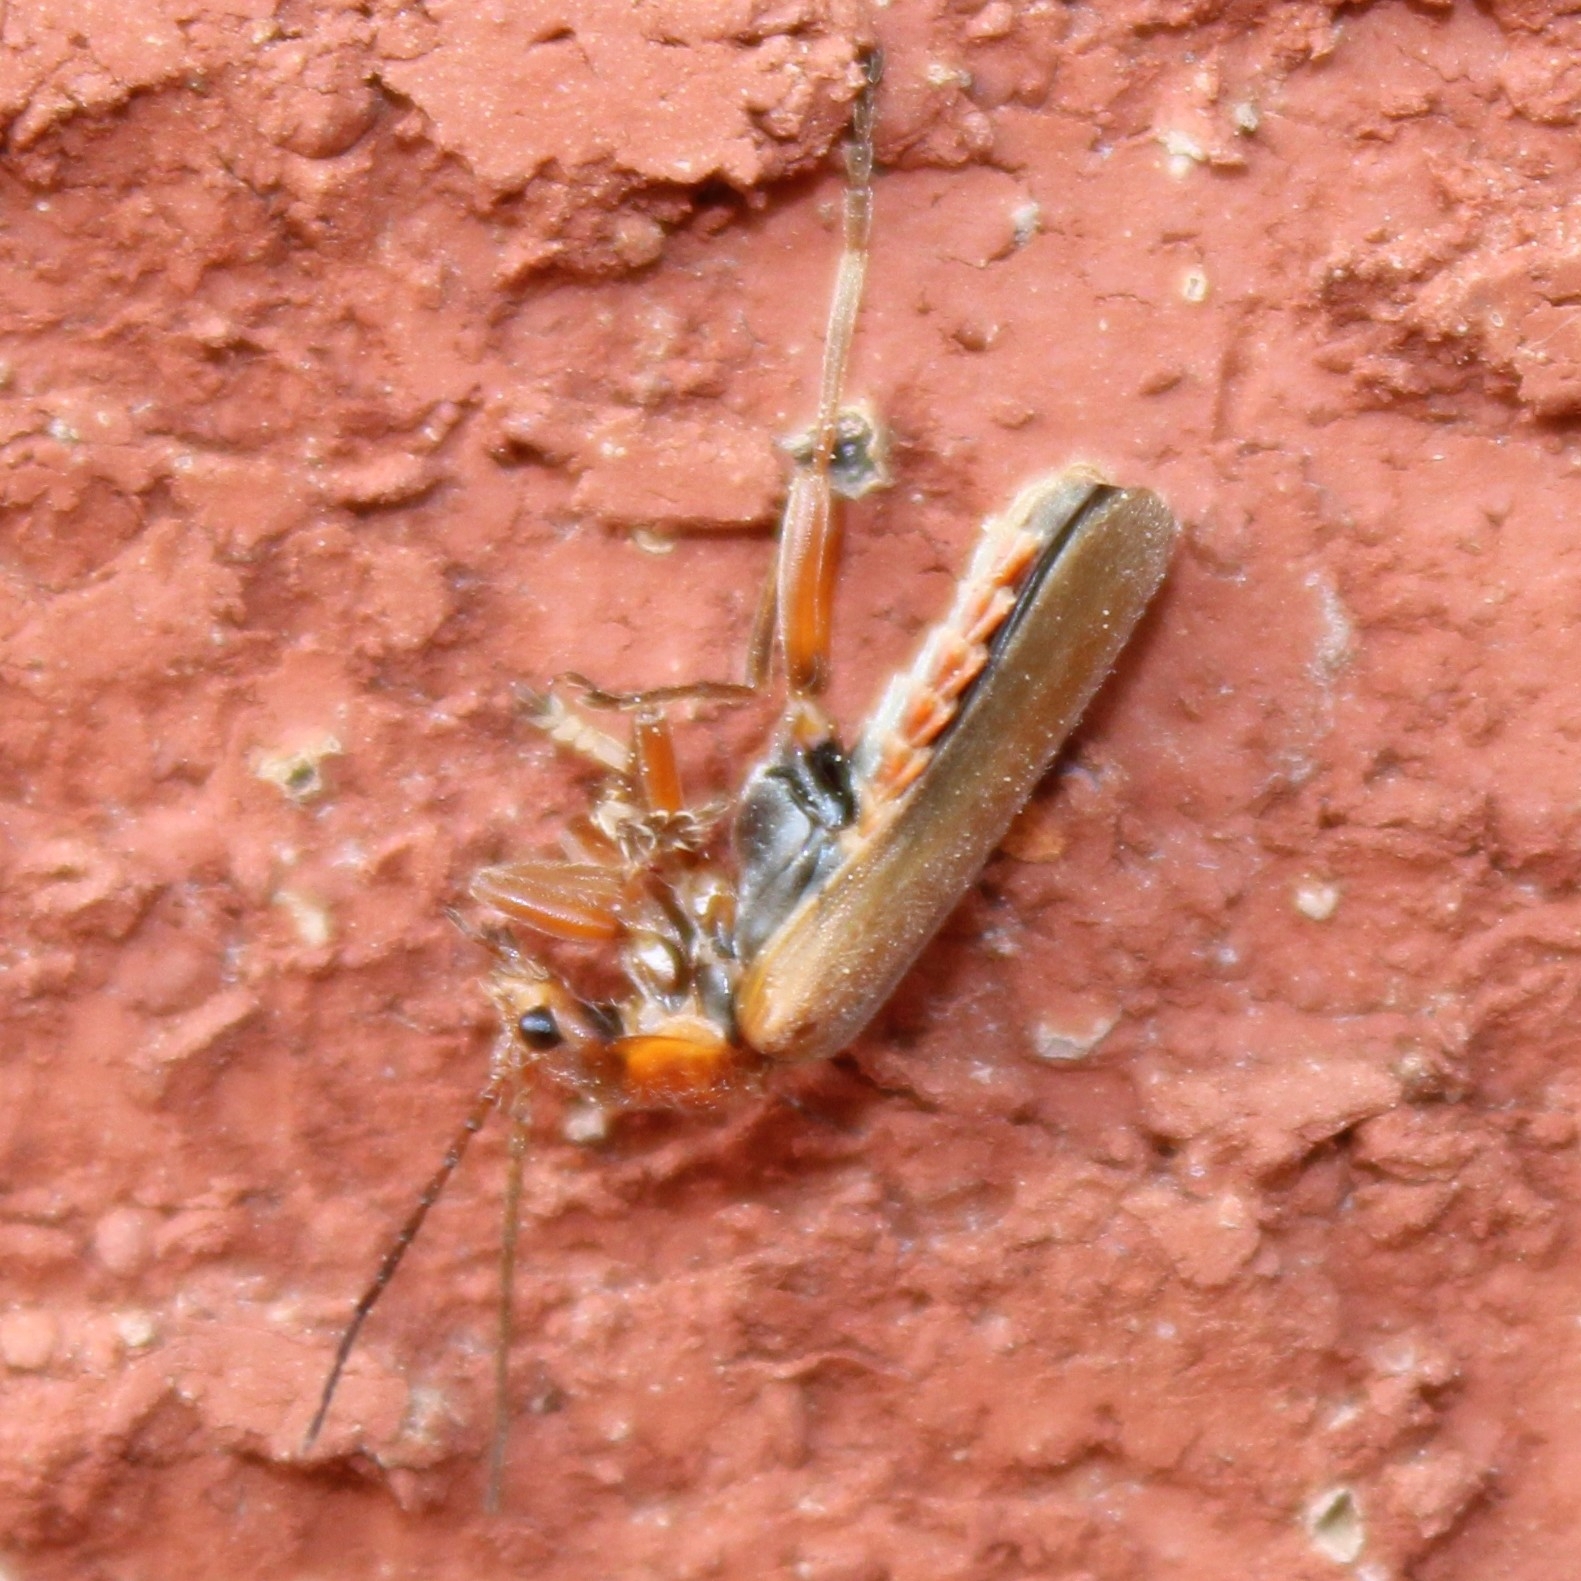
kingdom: Animalia
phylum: Arthropoda
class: Insecta
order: Coleoptera
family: Cantharidae
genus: Cantharis
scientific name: Cantharis rufa
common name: Red-spotted soldier beetle
